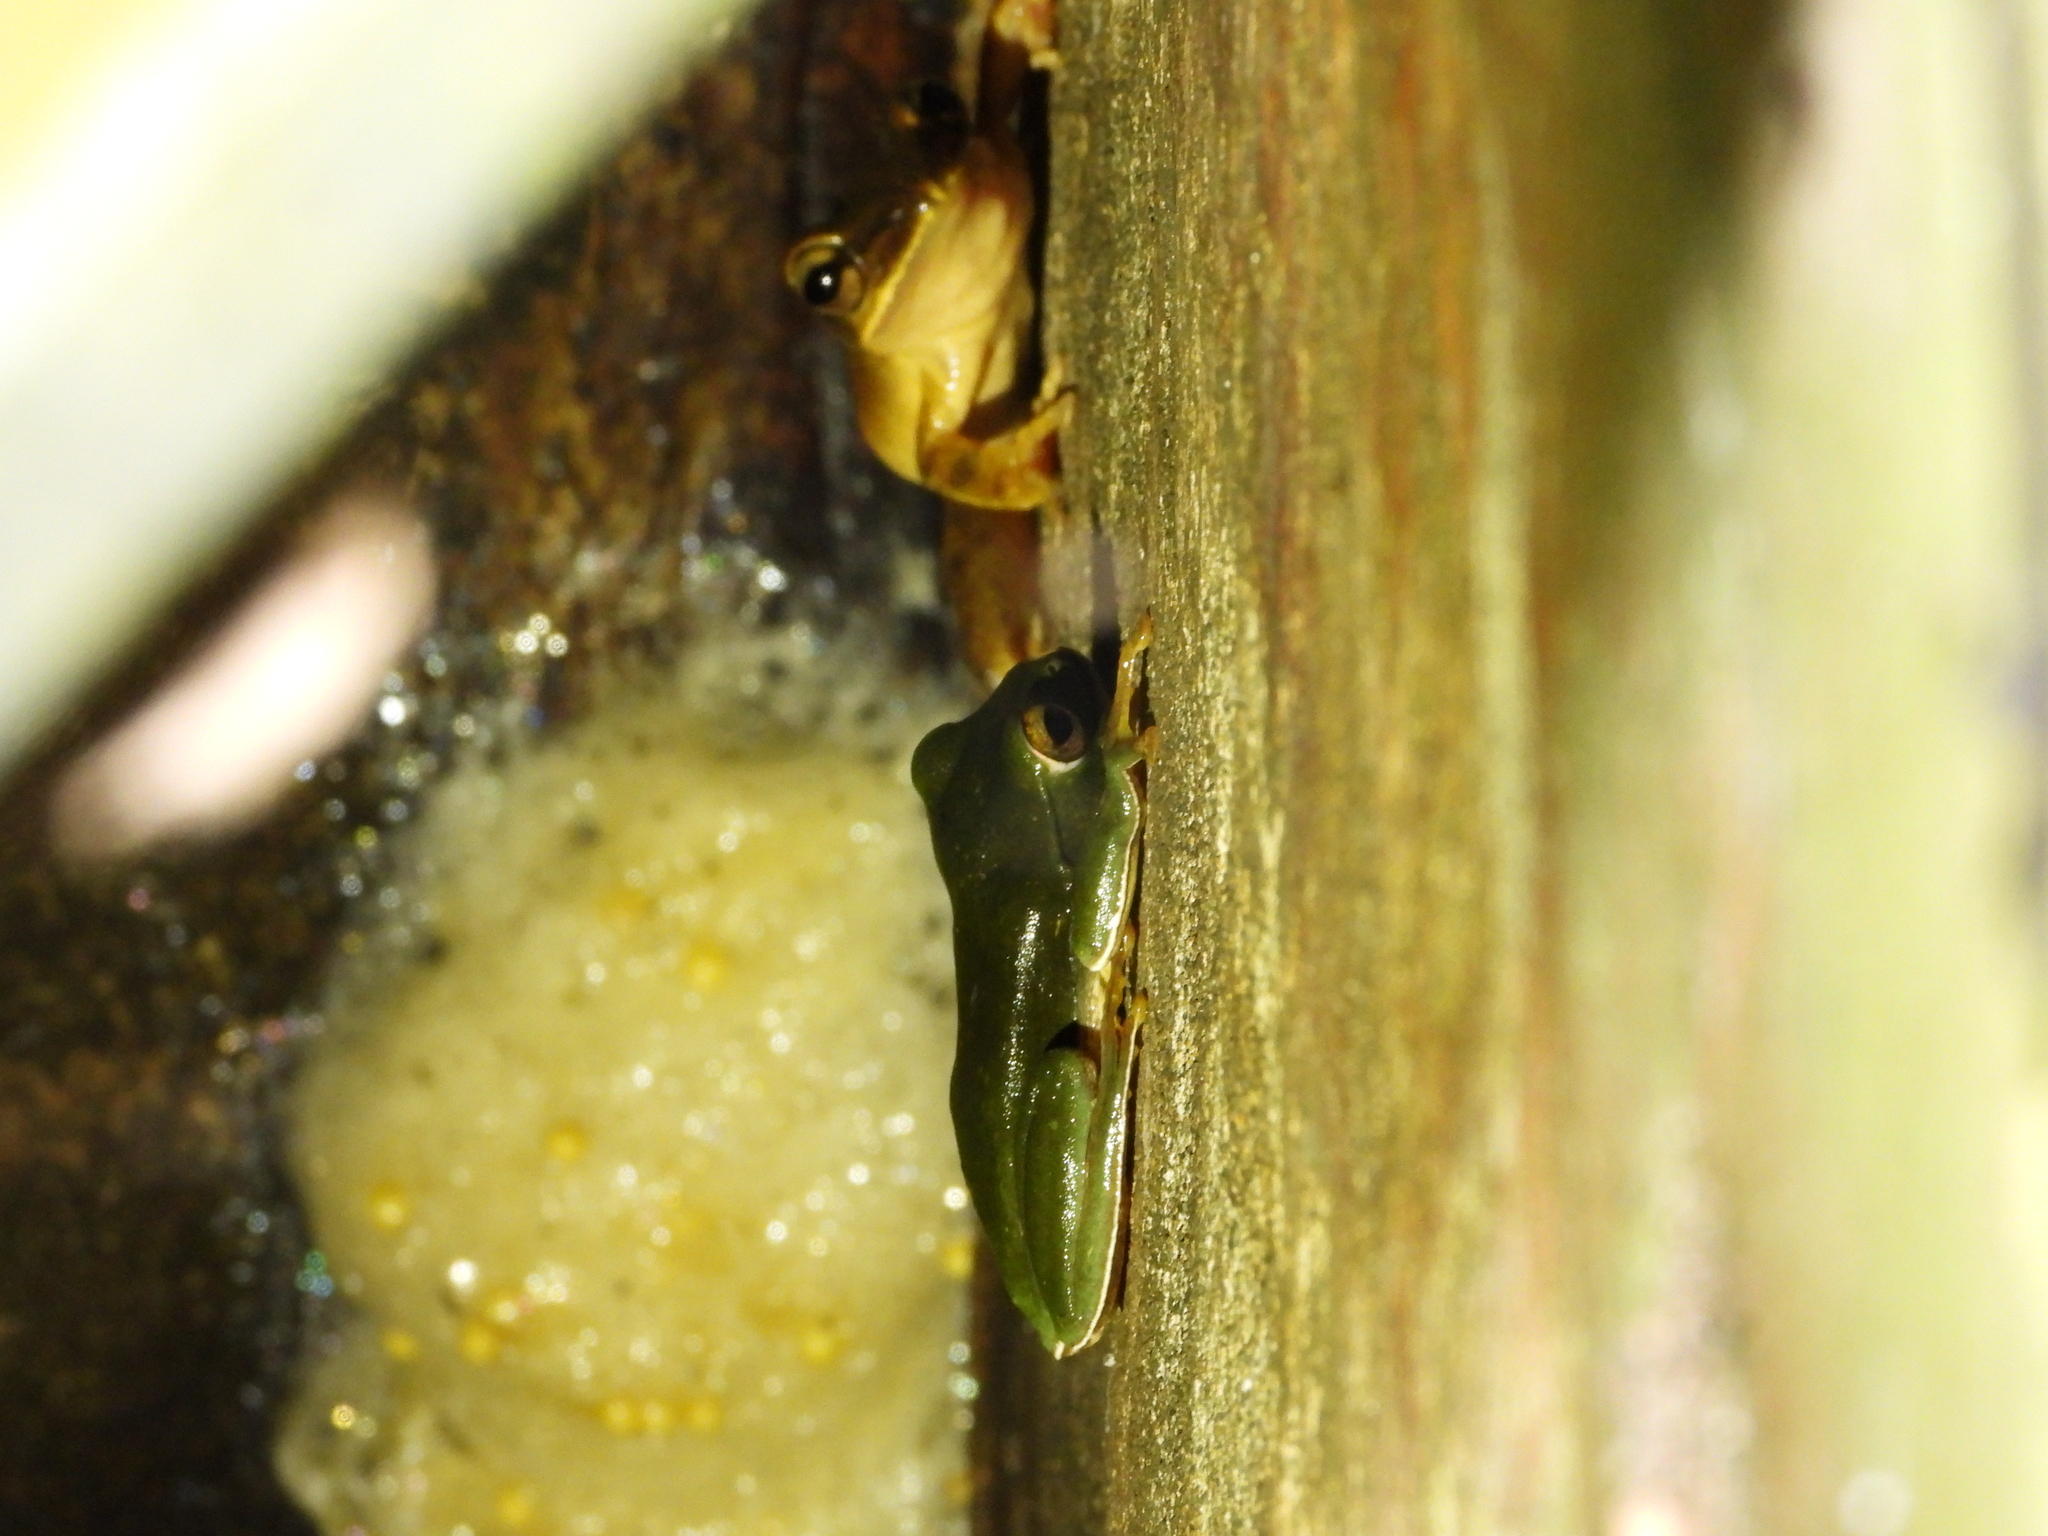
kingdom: Animalia
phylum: Chordata
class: Amphibia
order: Anura
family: Rhacophoridae
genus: Zhangixalus
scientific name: Zhangixalus moltrechti
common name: Moltrecht's treefrog
